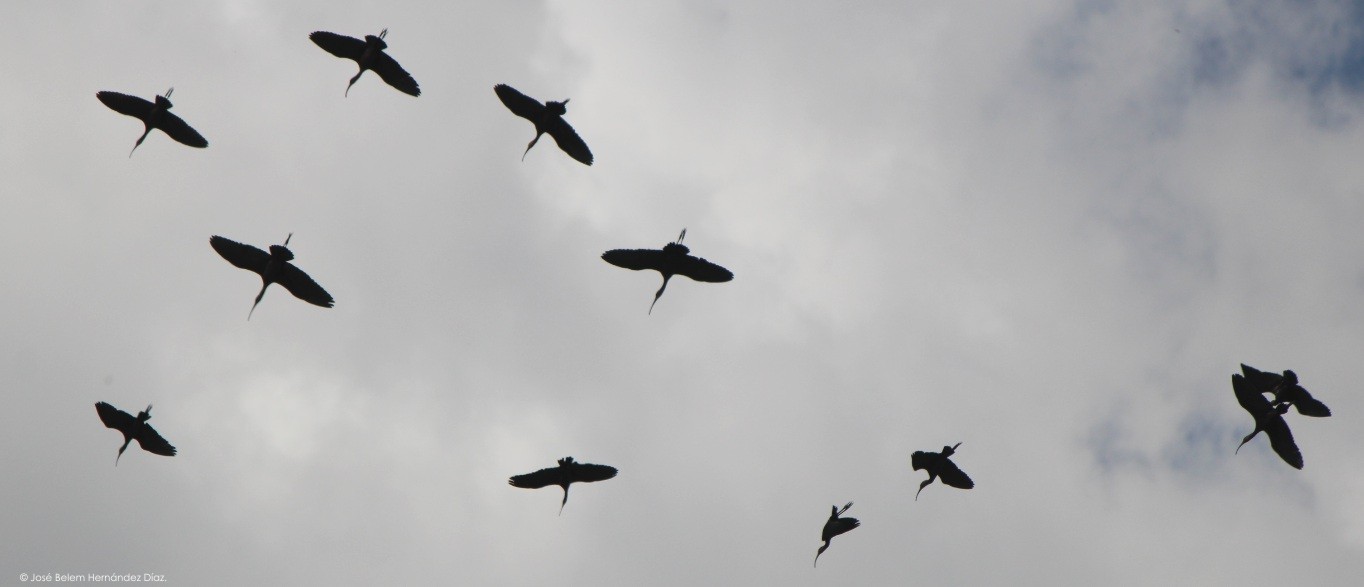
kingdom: Animalia
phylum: Chordata
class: Aves
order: Pelecaniformes
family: Threskiornithidae
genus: Plegadis
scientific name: Plegadis chihi
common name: White-faced ibis
